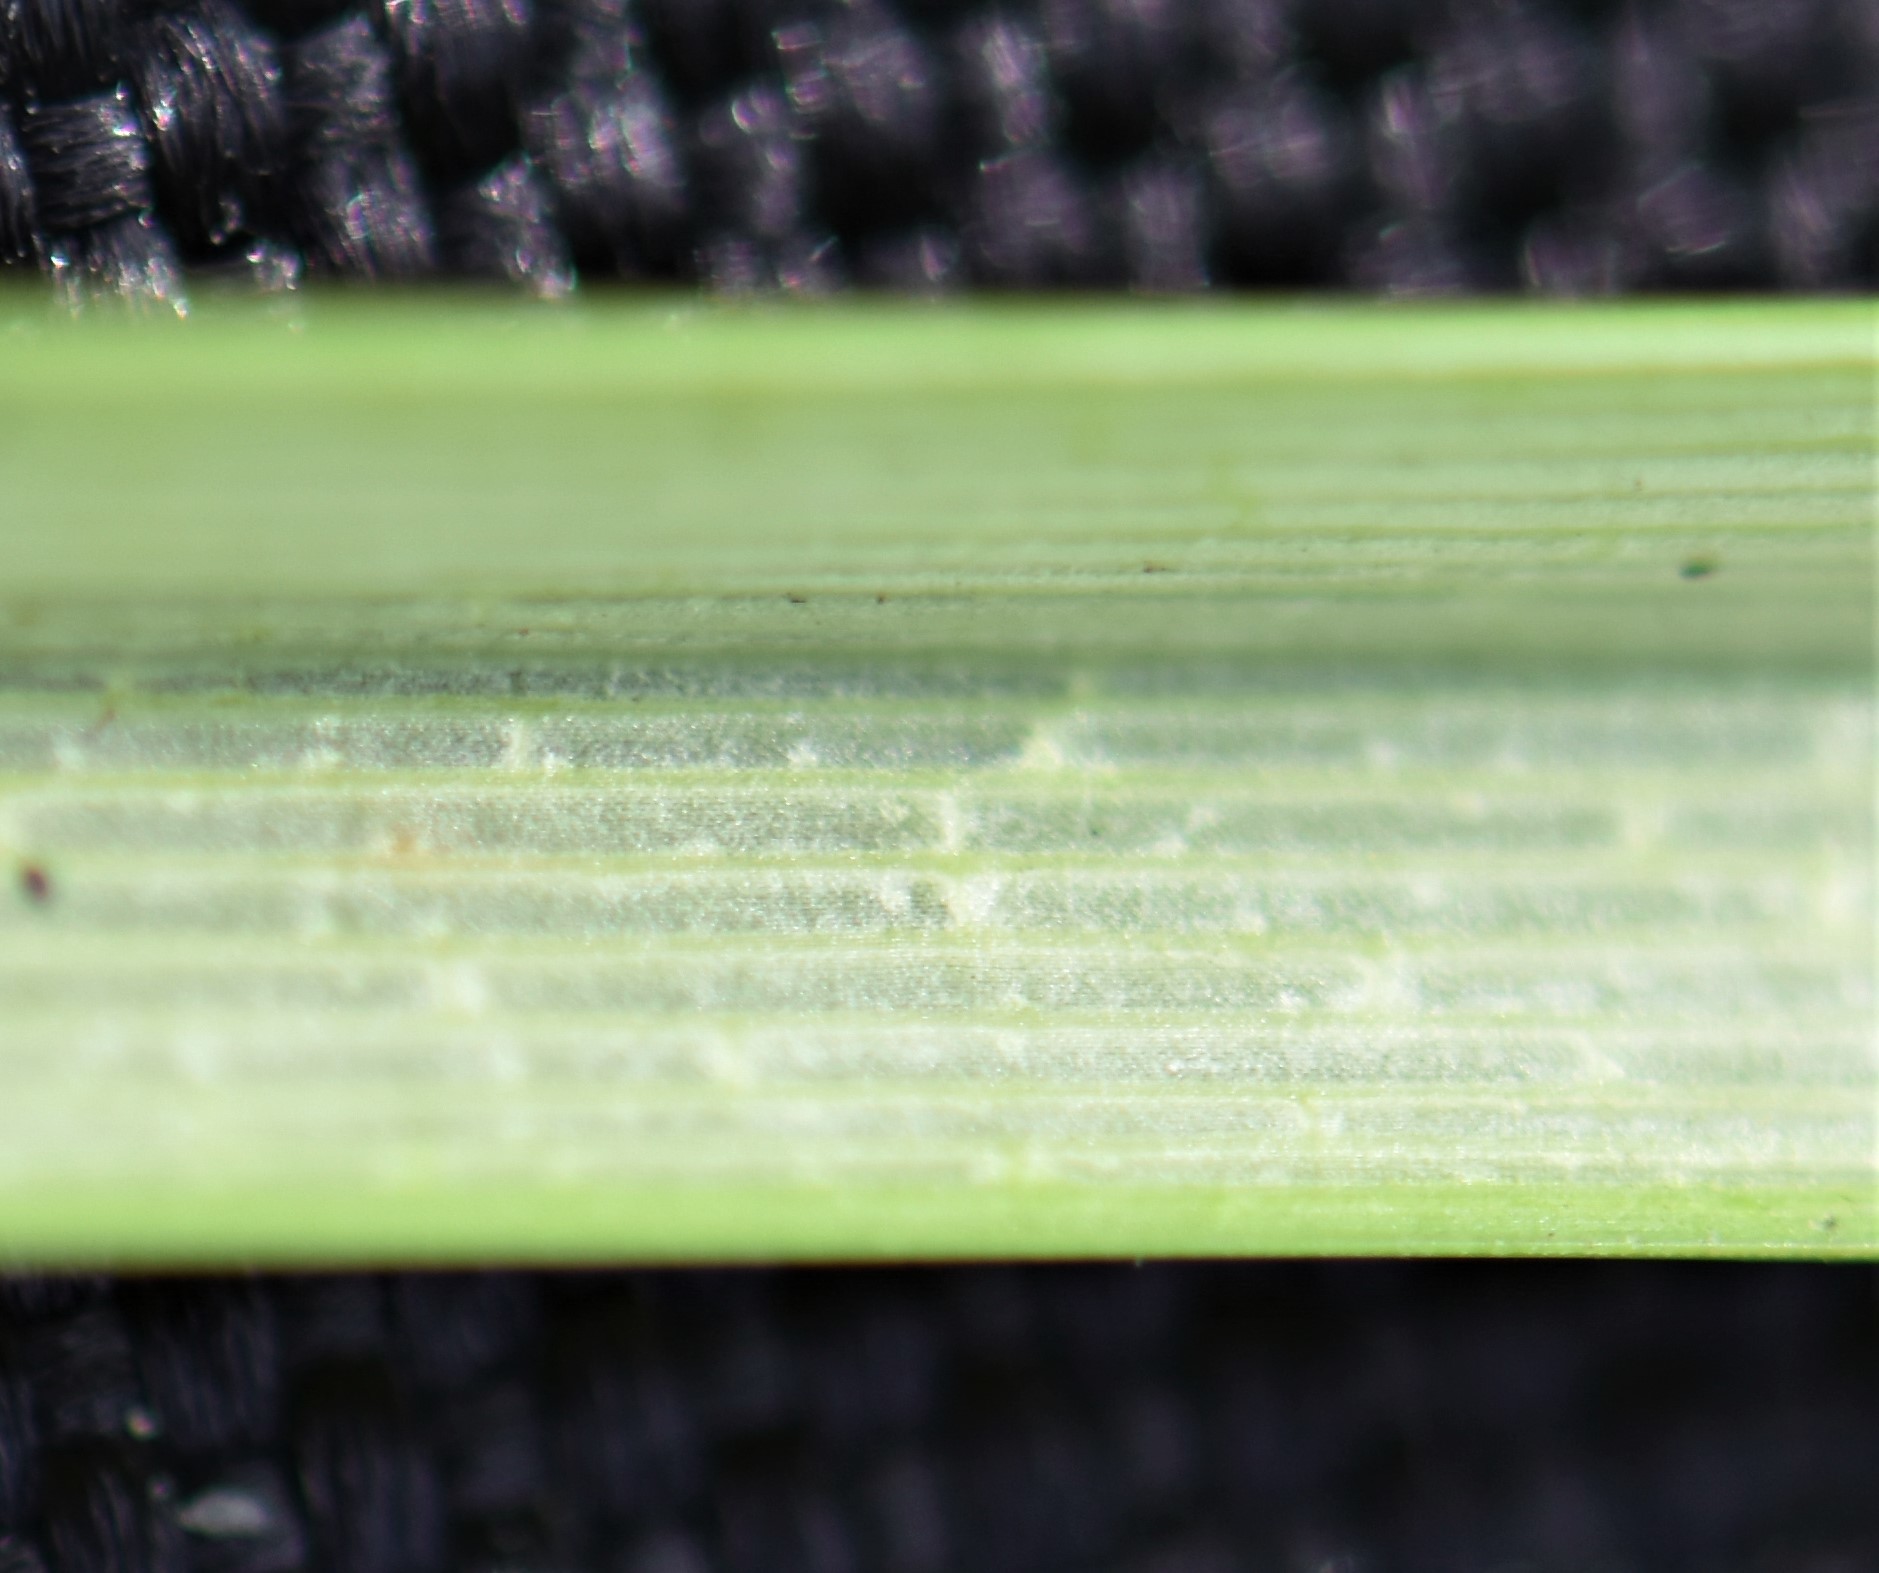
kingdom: Plantae
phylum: Tracheophyta
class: Liliopsida
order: Poales
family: Cyperaceae
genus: Carex
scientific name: Carex rostrata
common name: Bottle sedge
